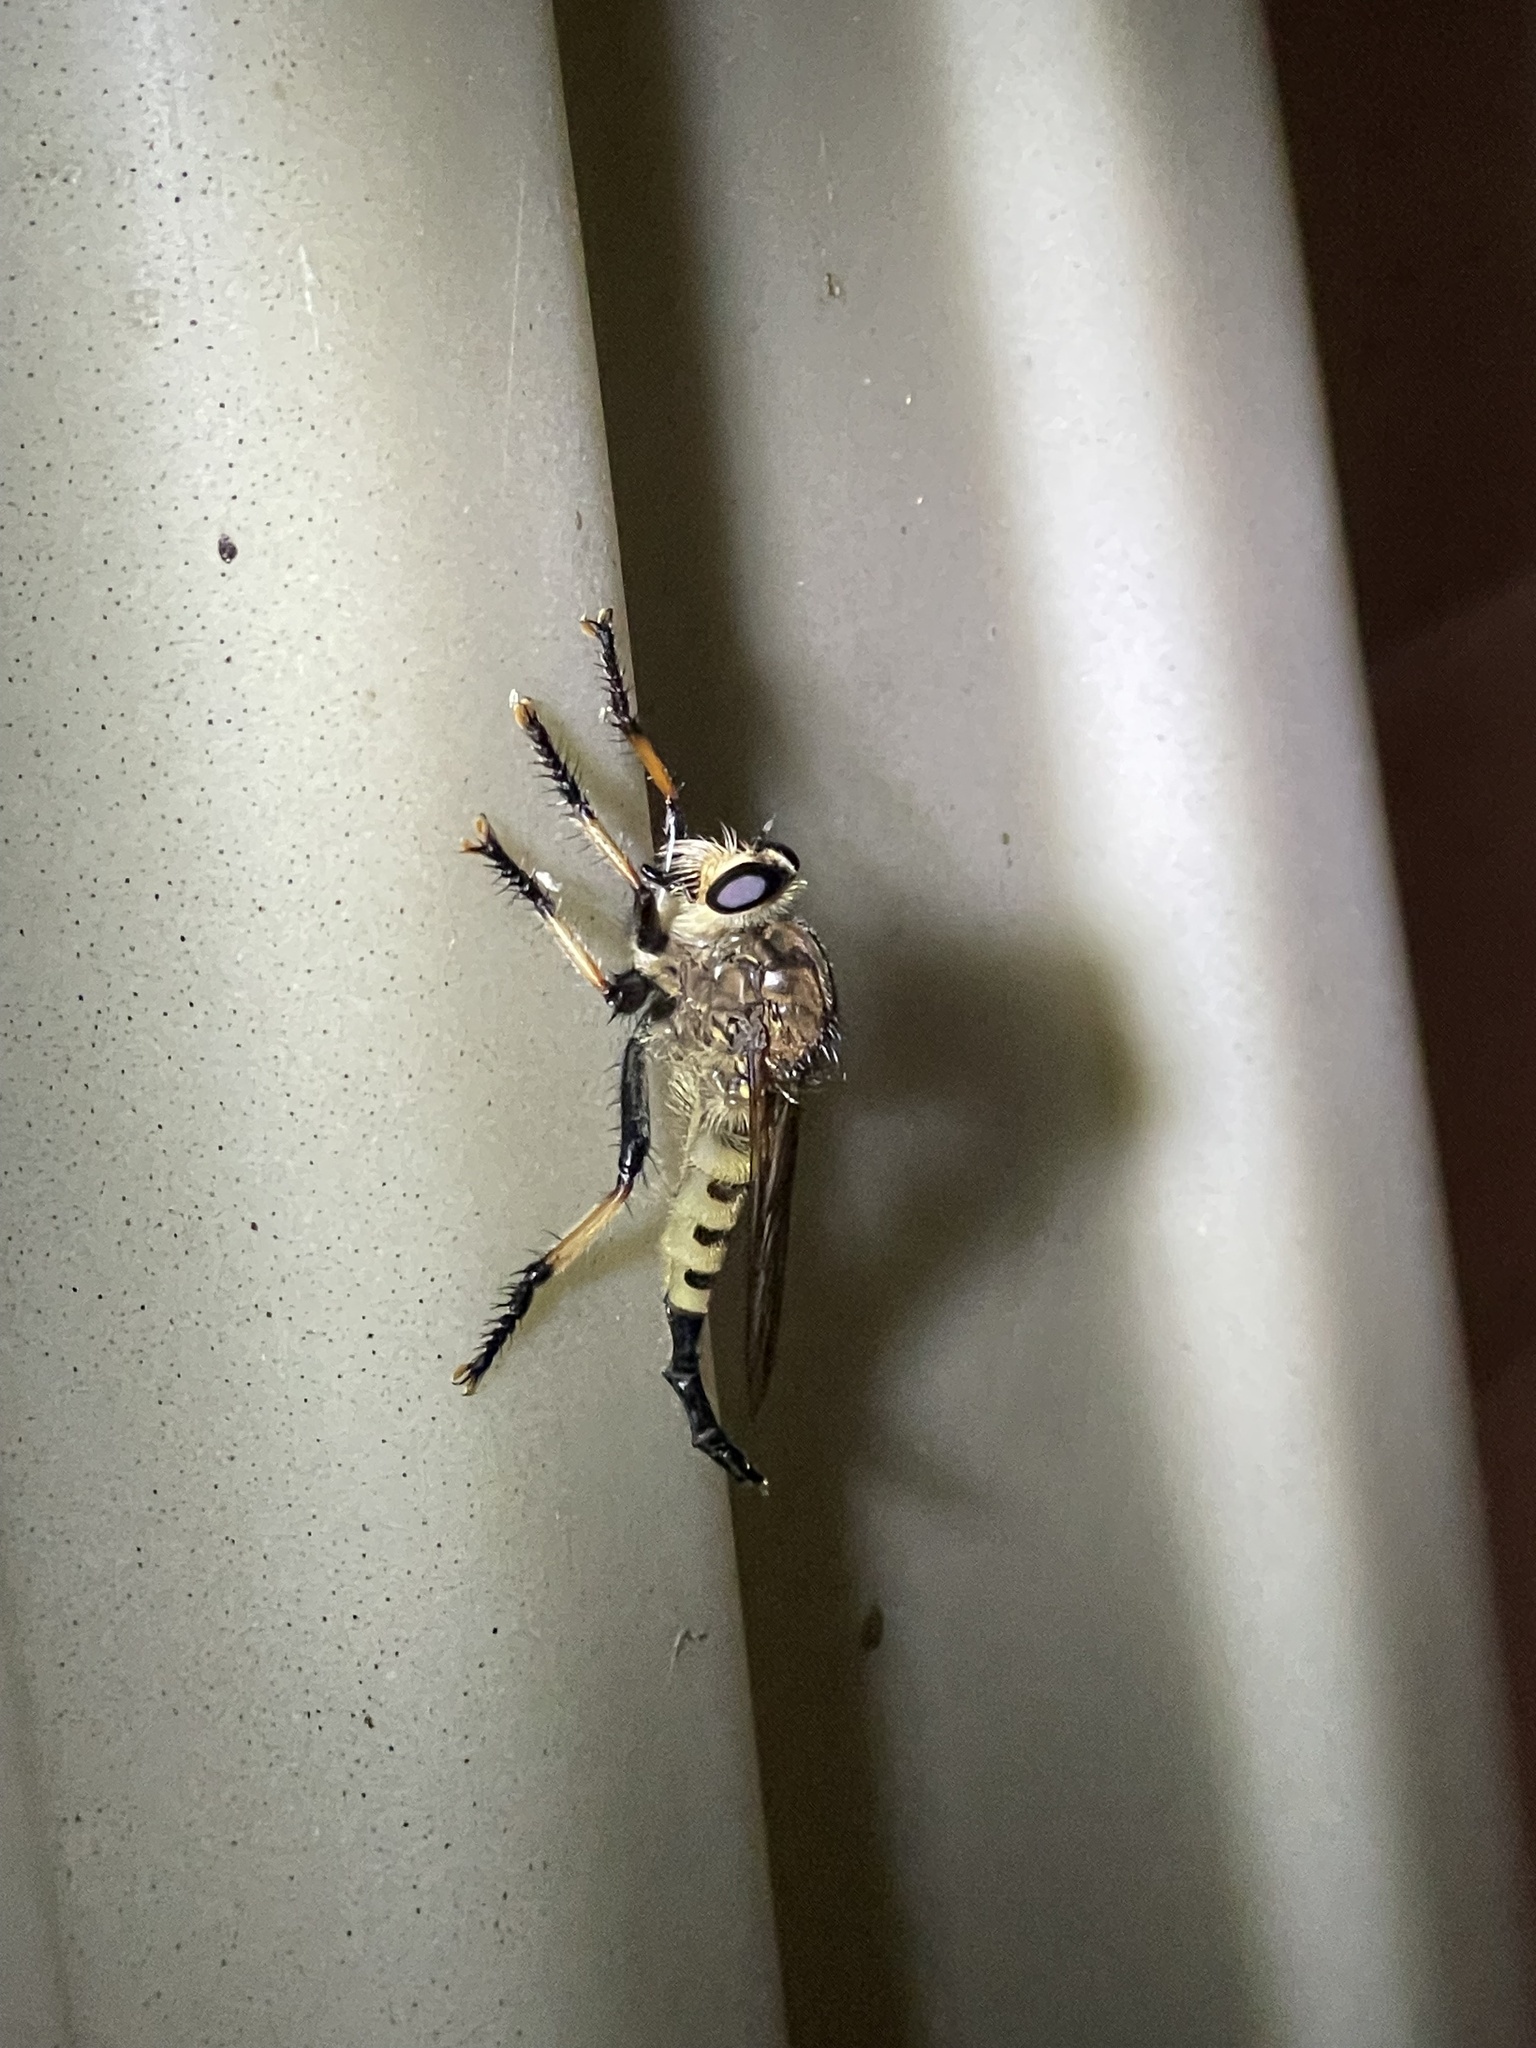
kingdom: Animalia
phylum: Arthropoda
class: Insecta
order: Diptera
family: Asilidae
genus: Promachus
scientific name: Promachus rufipes
